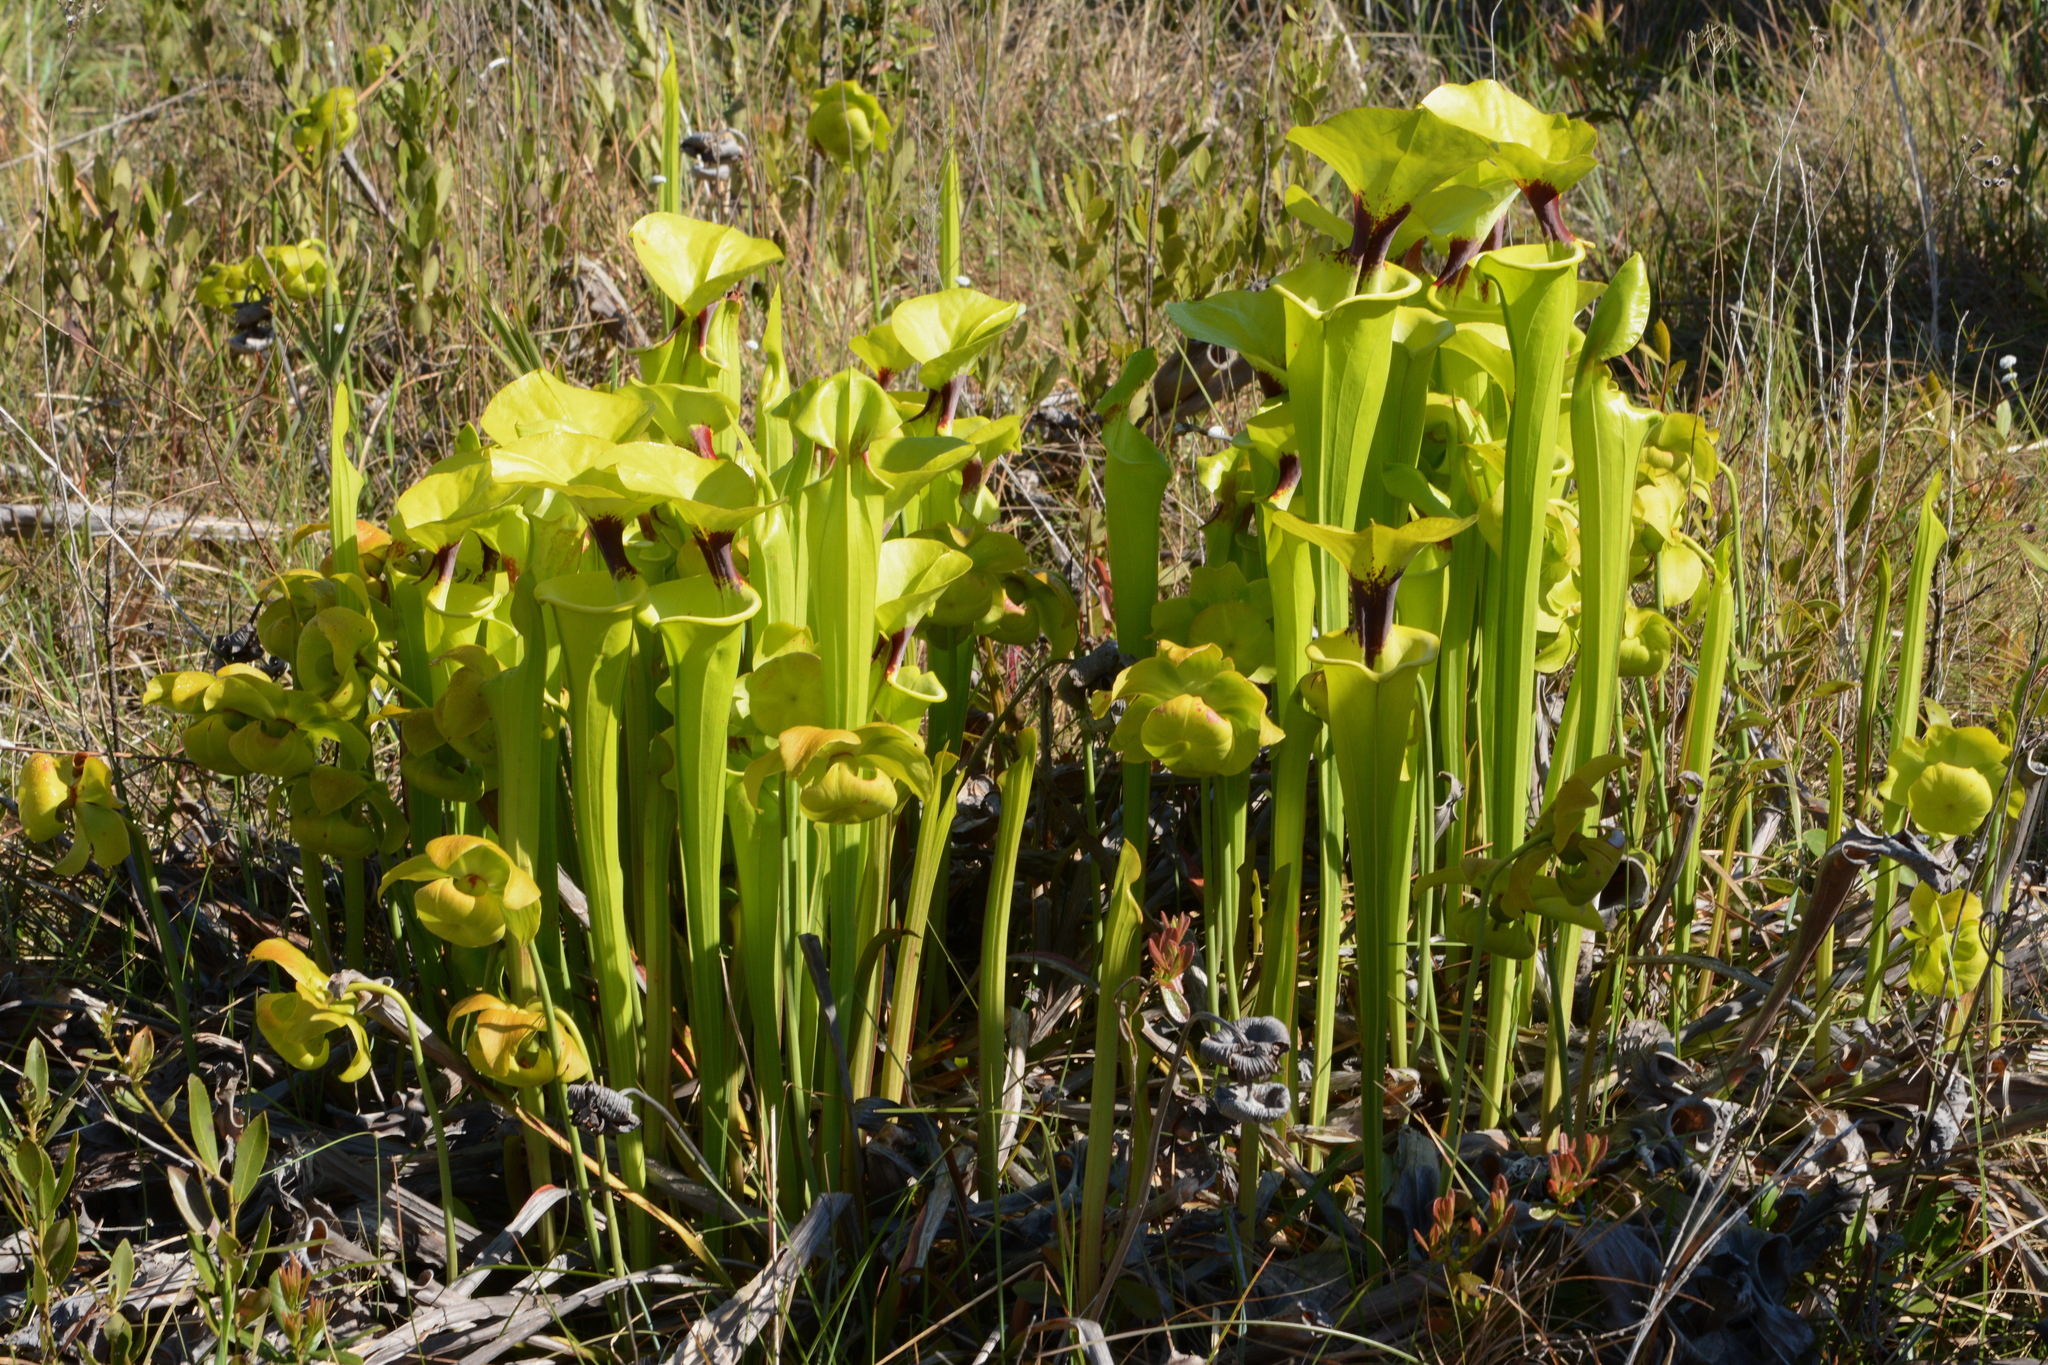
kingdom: Plantae
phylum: Tracheophyta
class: Magnoliopsida
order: Ericales
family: Sarraceniaceae
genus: Sarracenia
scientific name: Sarracenia flava
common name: Trumpets
